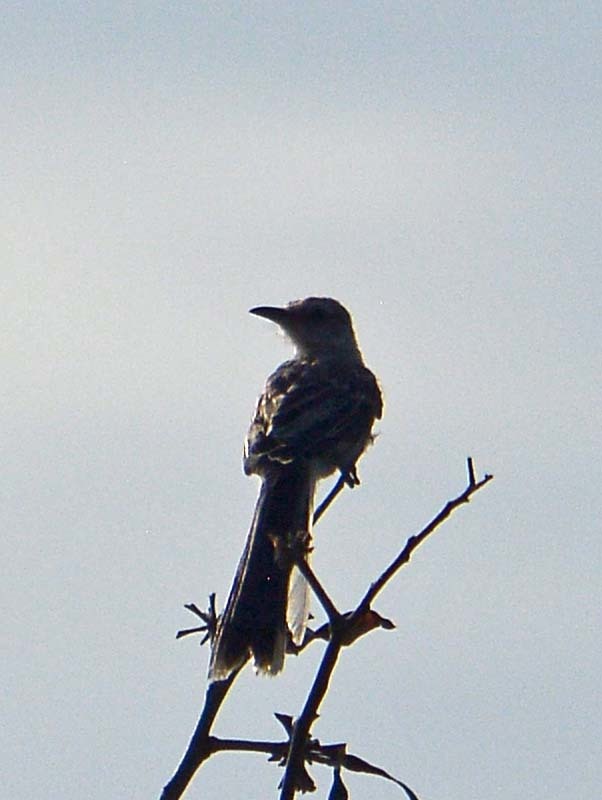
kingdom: Animalia
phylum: Chordata
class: Aves
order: Passeriformes
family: Mimidae
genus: Mimus
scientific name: Mimus gilvus
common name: Tropical mockingbird
